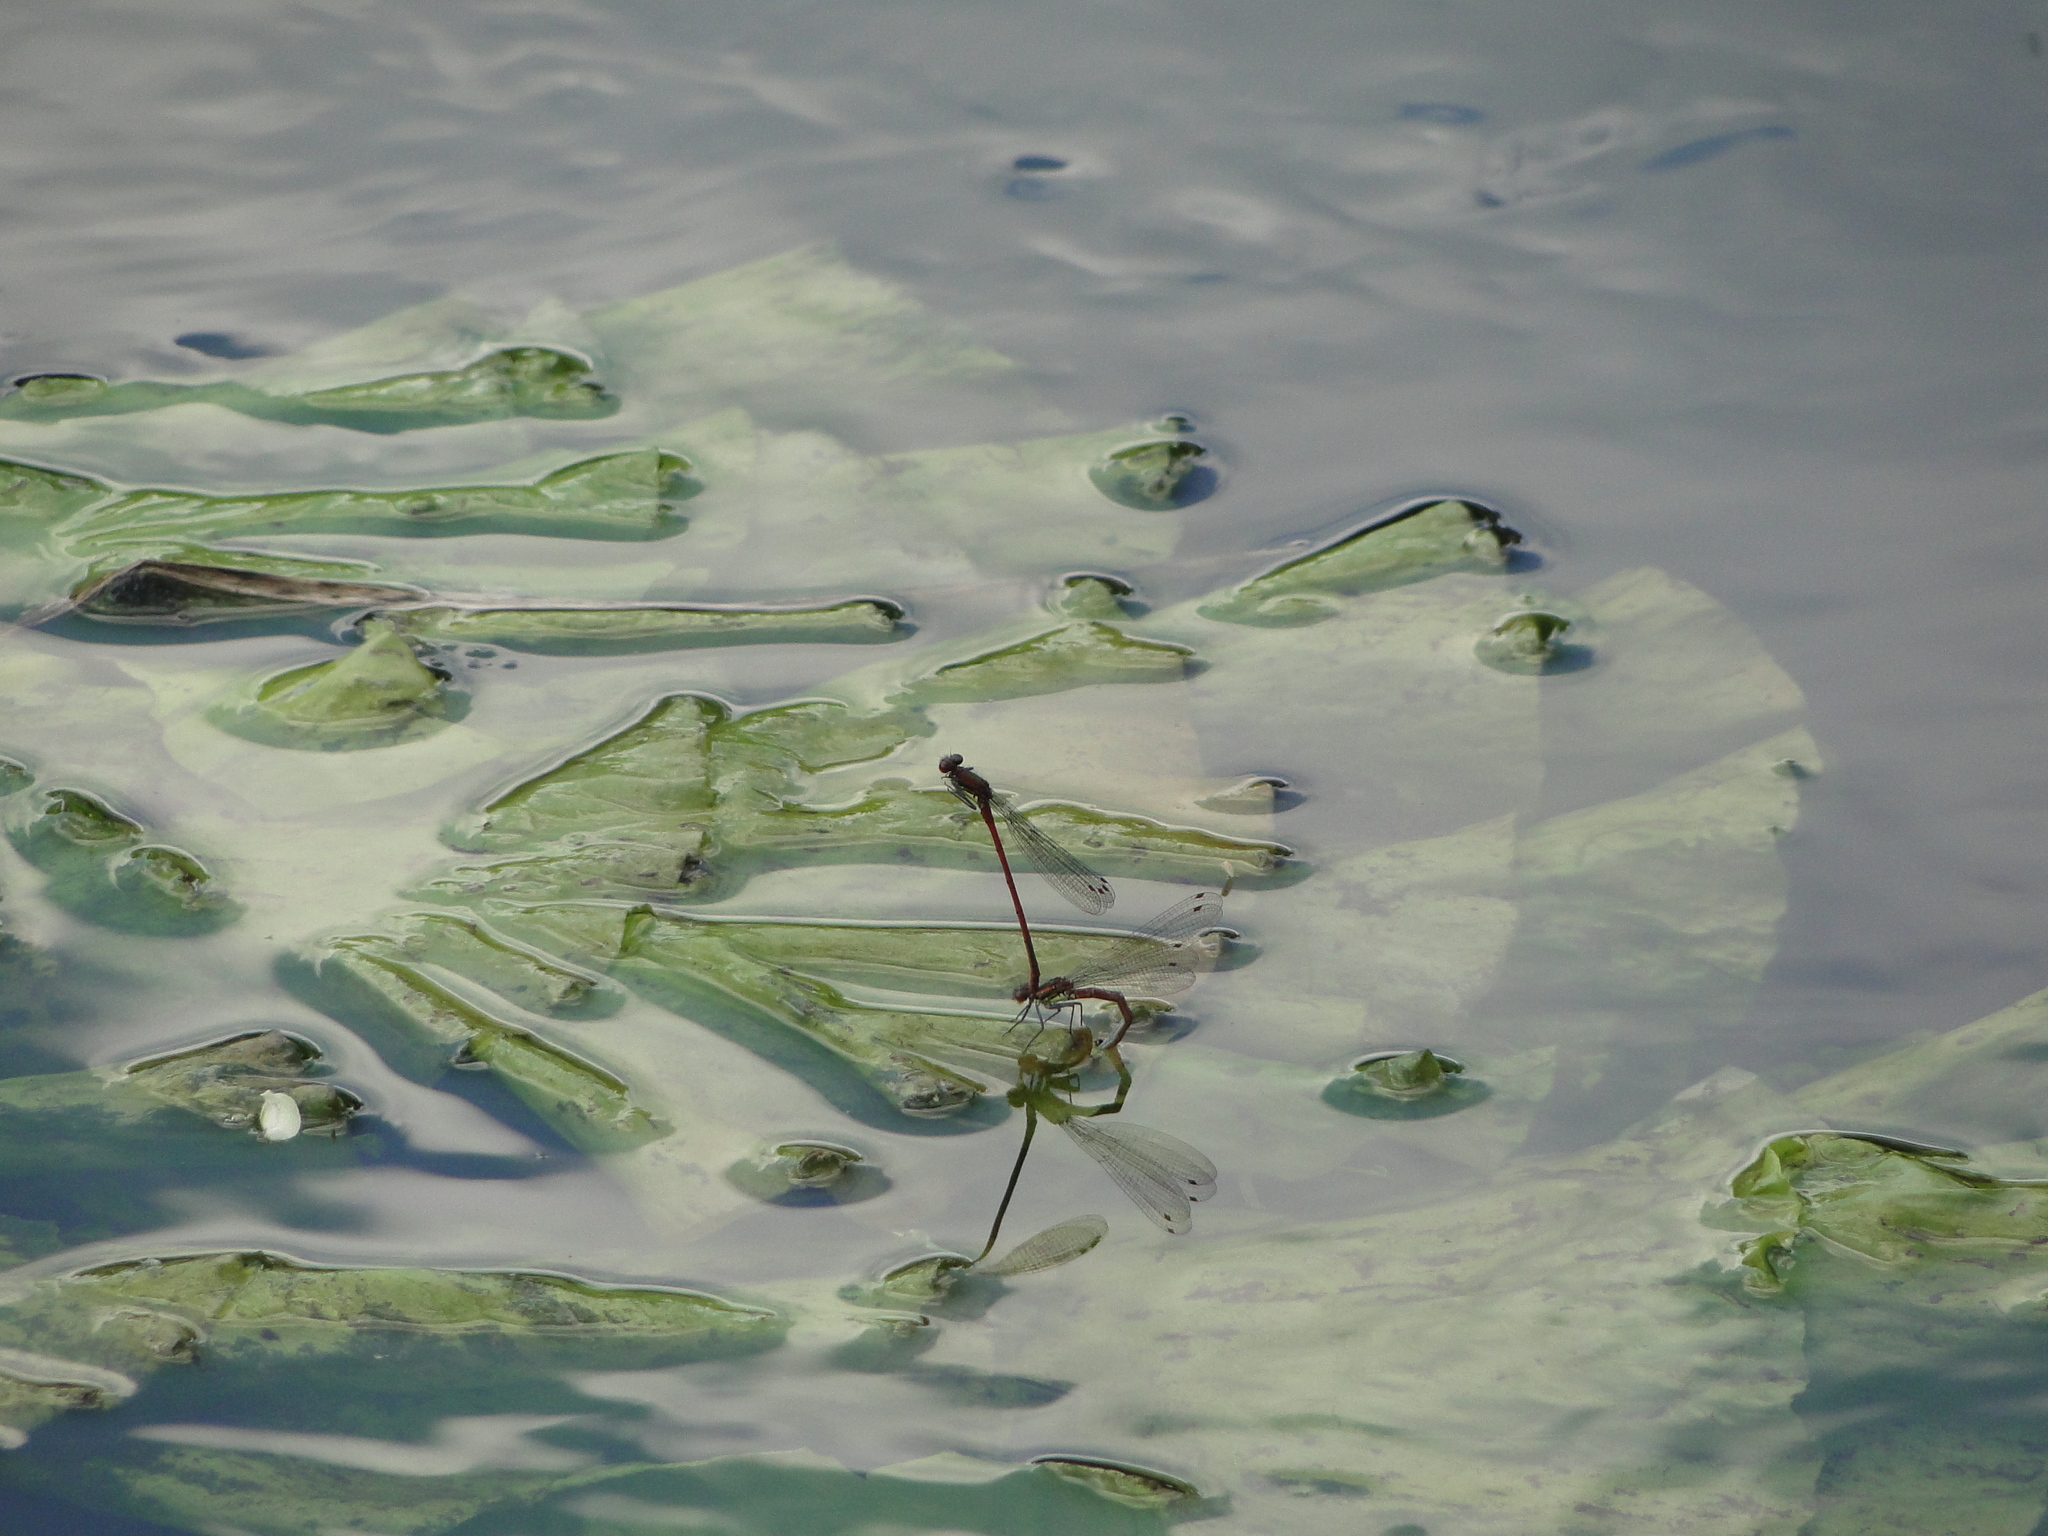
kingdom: Animalia
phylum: Arthropoda
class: Insecta
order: Odonata
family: Coenagrionidae
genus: Pyrrhosoma
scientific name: Pyrrhosoma nymphula
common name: Large red damsel
